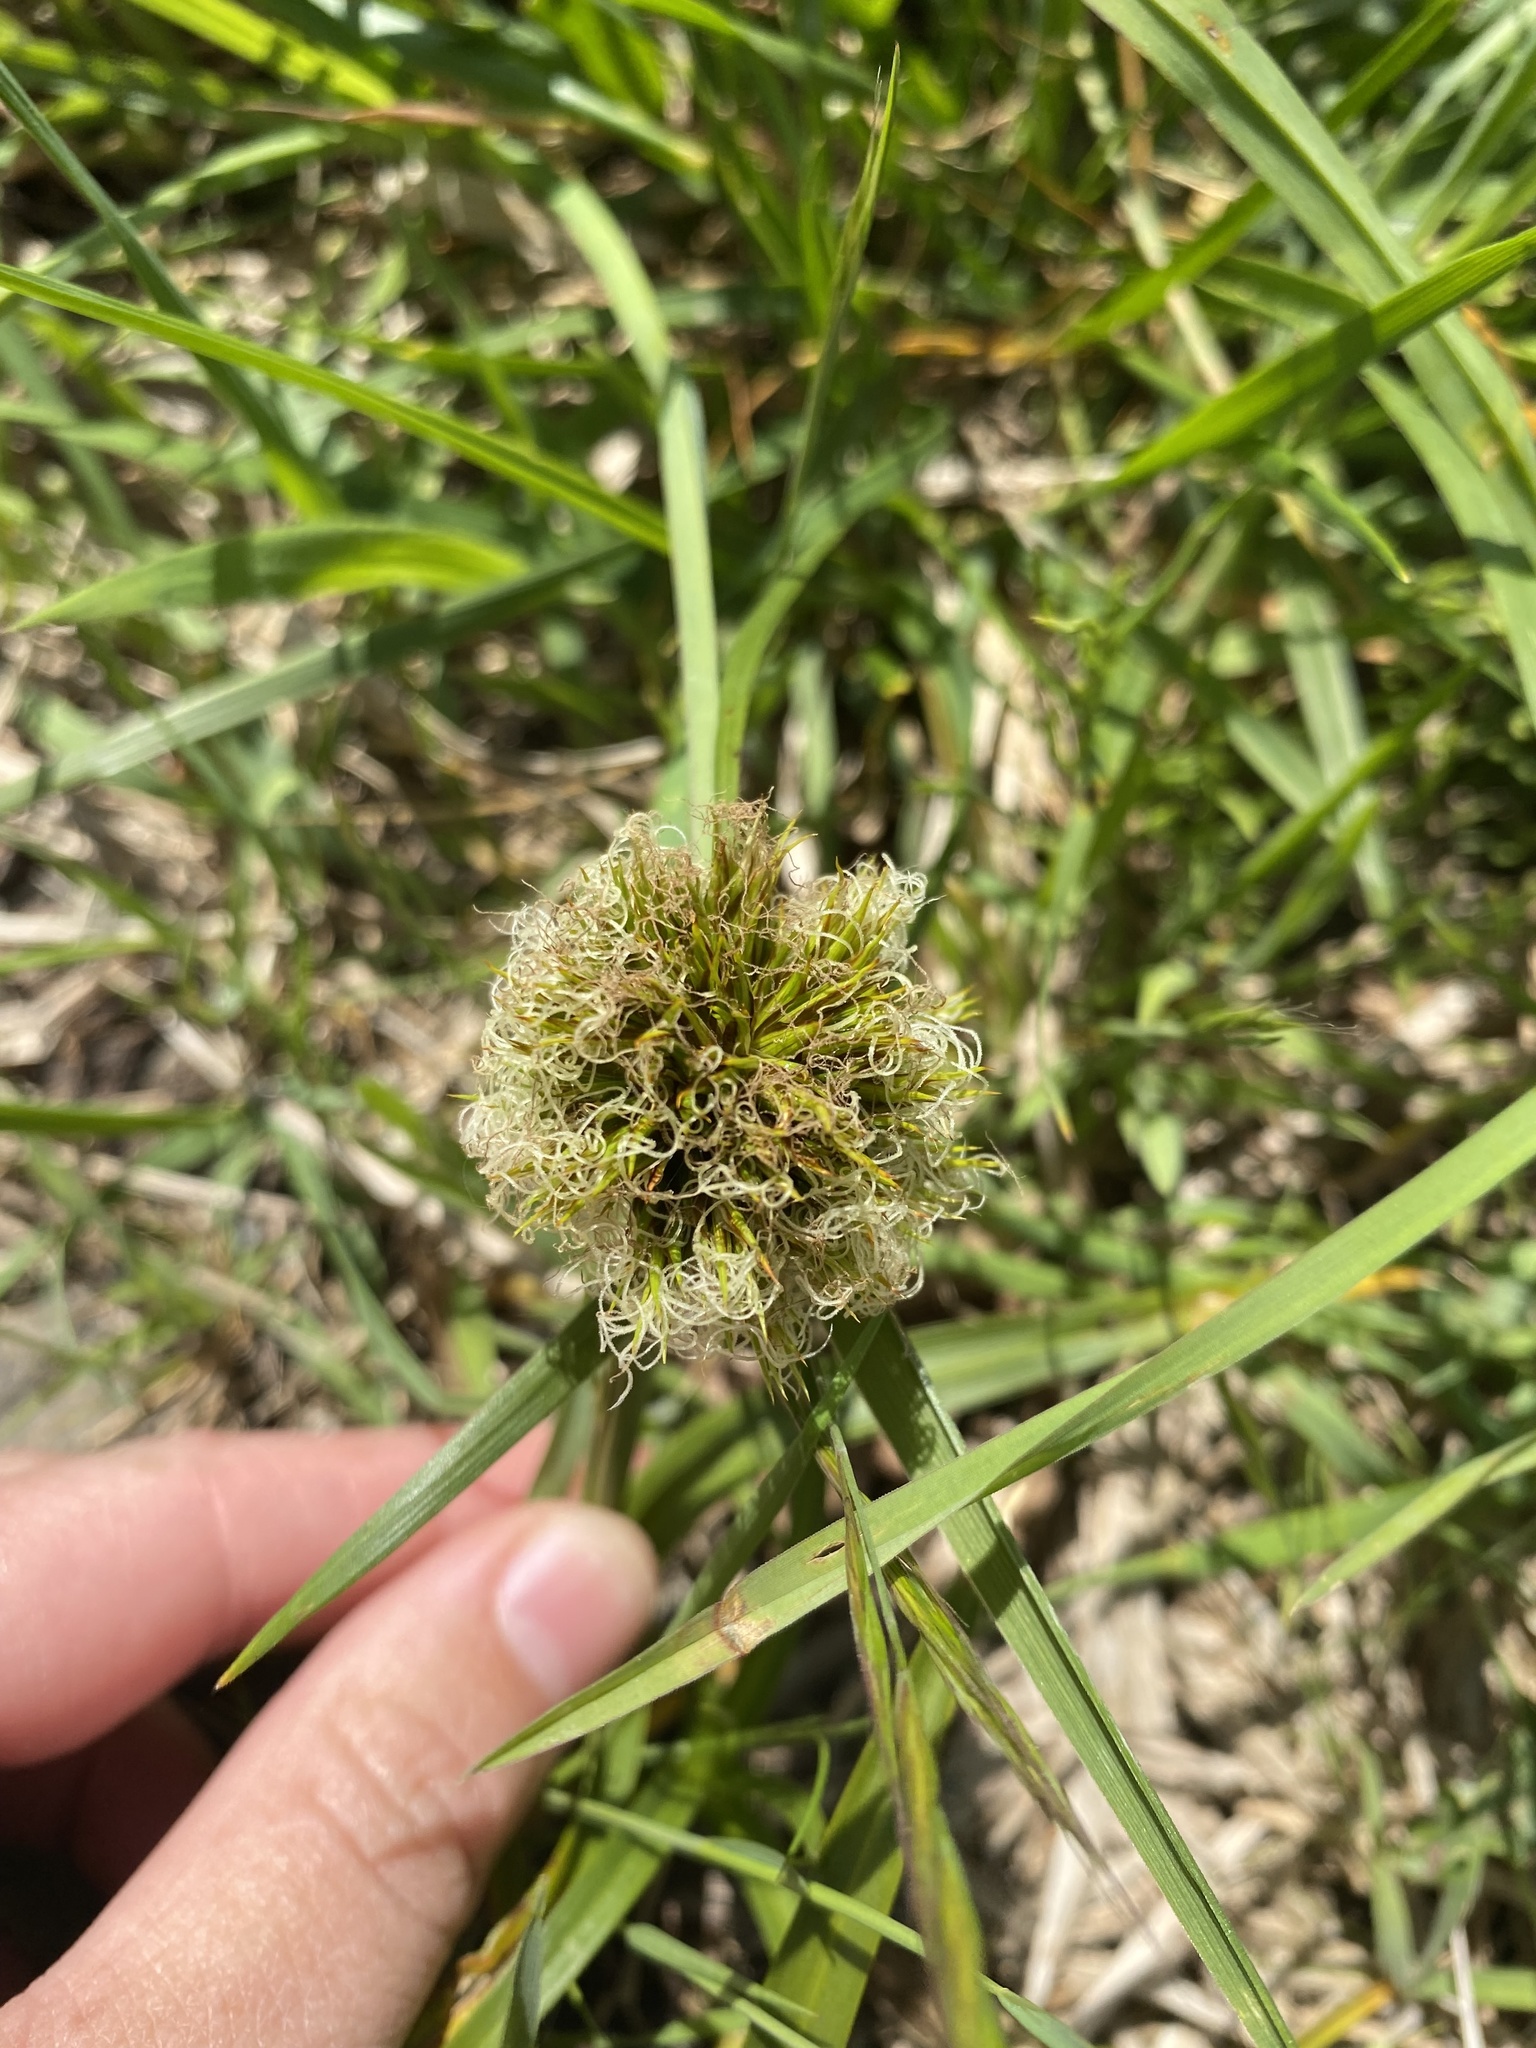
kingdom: Plantae
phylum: Tracheophyta
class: Liliopsida
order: Poales
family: Cyperaceae
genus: Carex
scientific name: Carex macrocephala
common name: Large-head sedge
